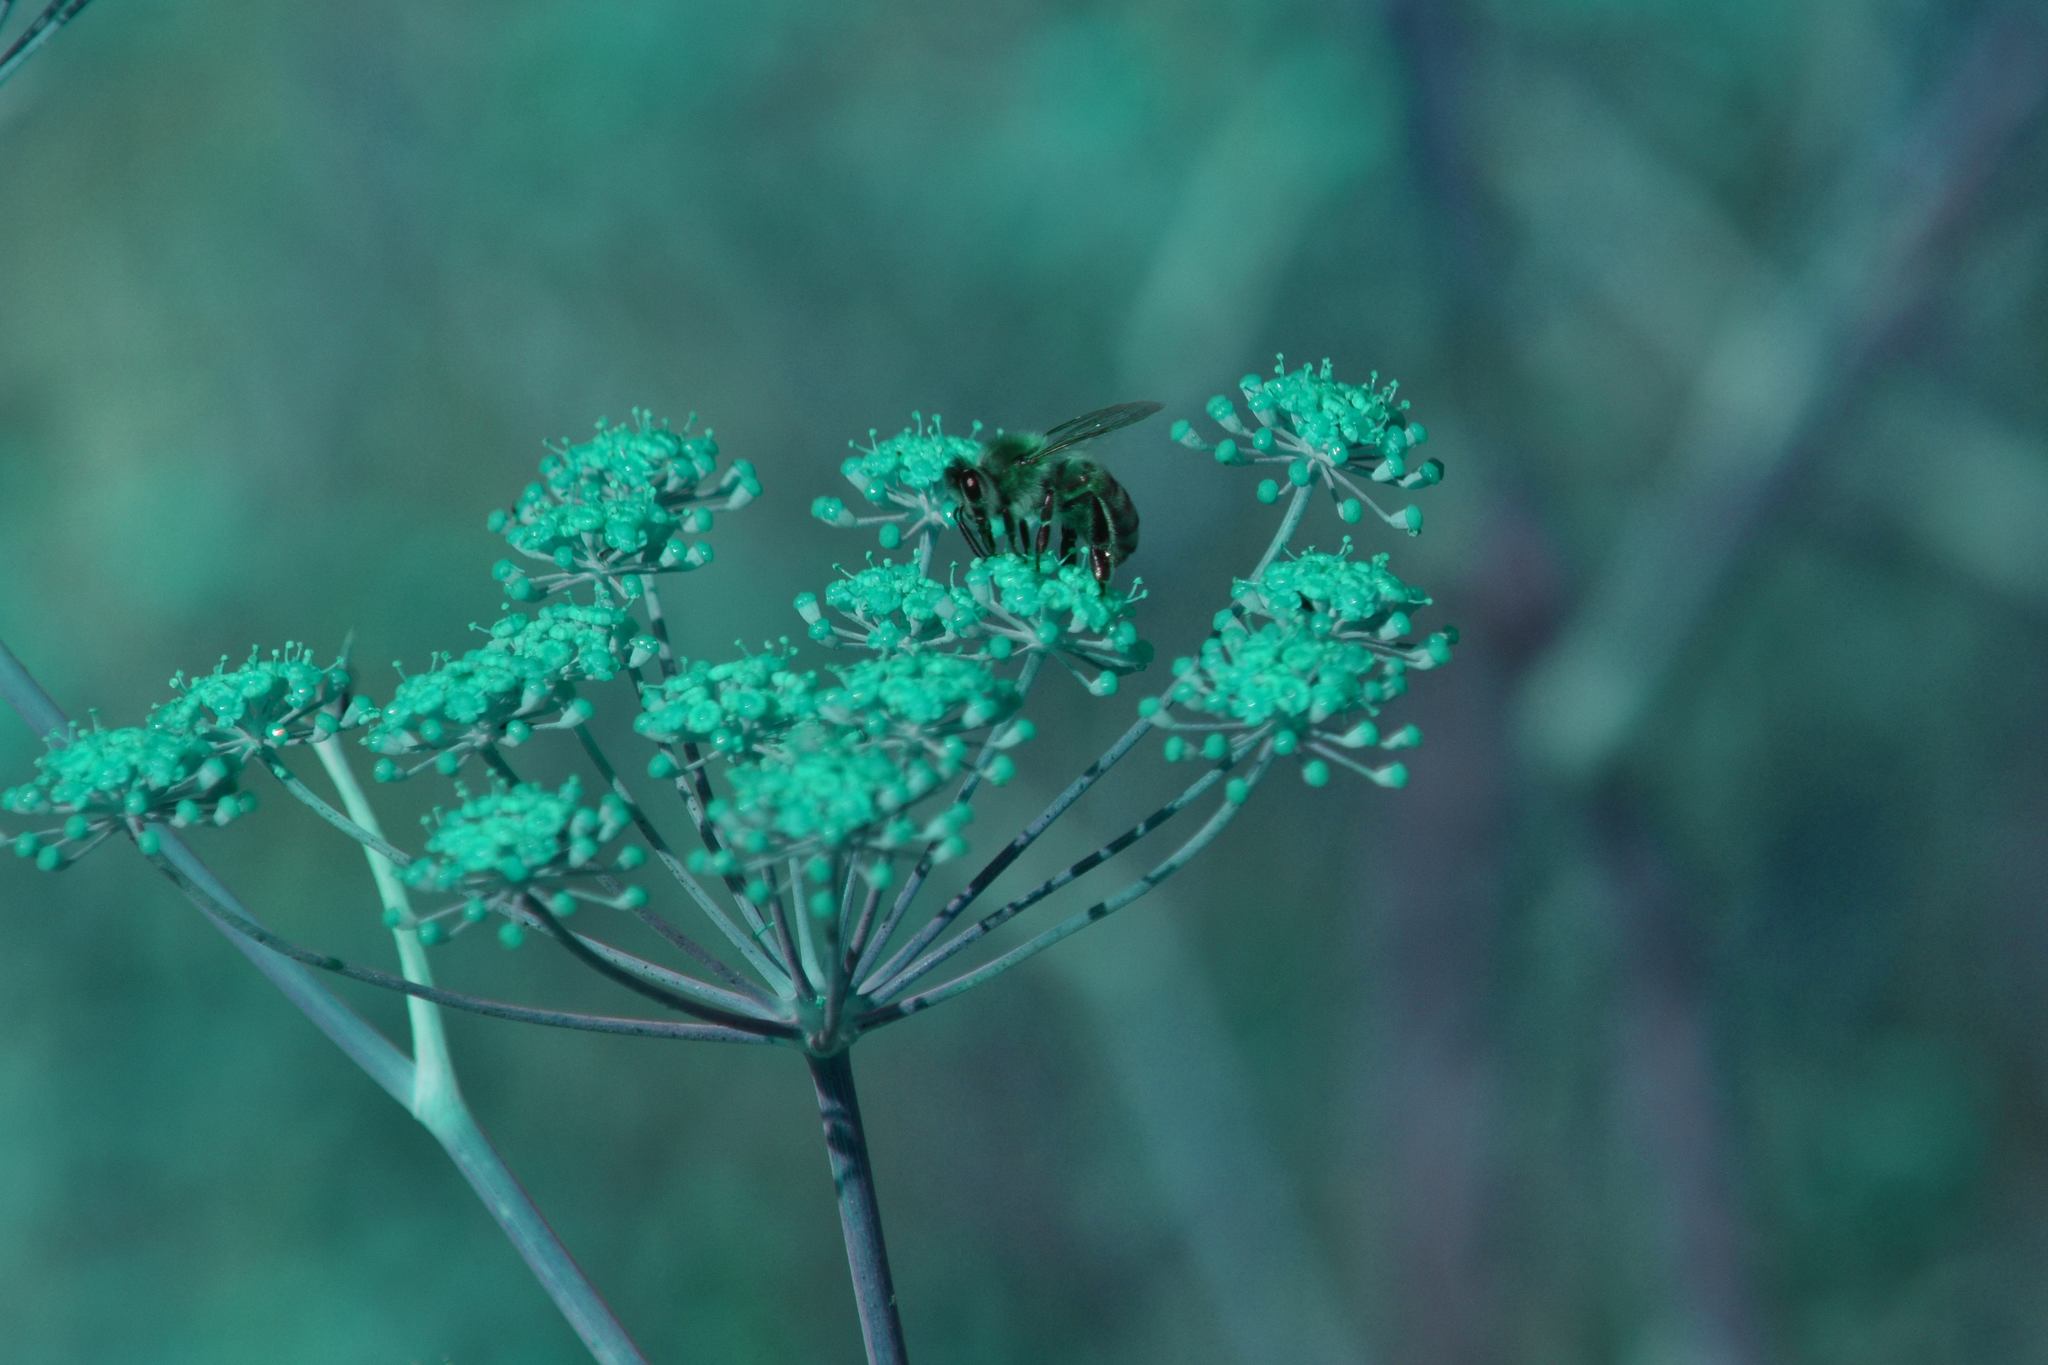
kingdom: Plantae
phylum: Tracheophyta
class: Magnoliopsida
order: Apiales
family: Apiaceae
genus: Foeniculum
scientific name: Foeniculum vulgare
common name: Fennel
